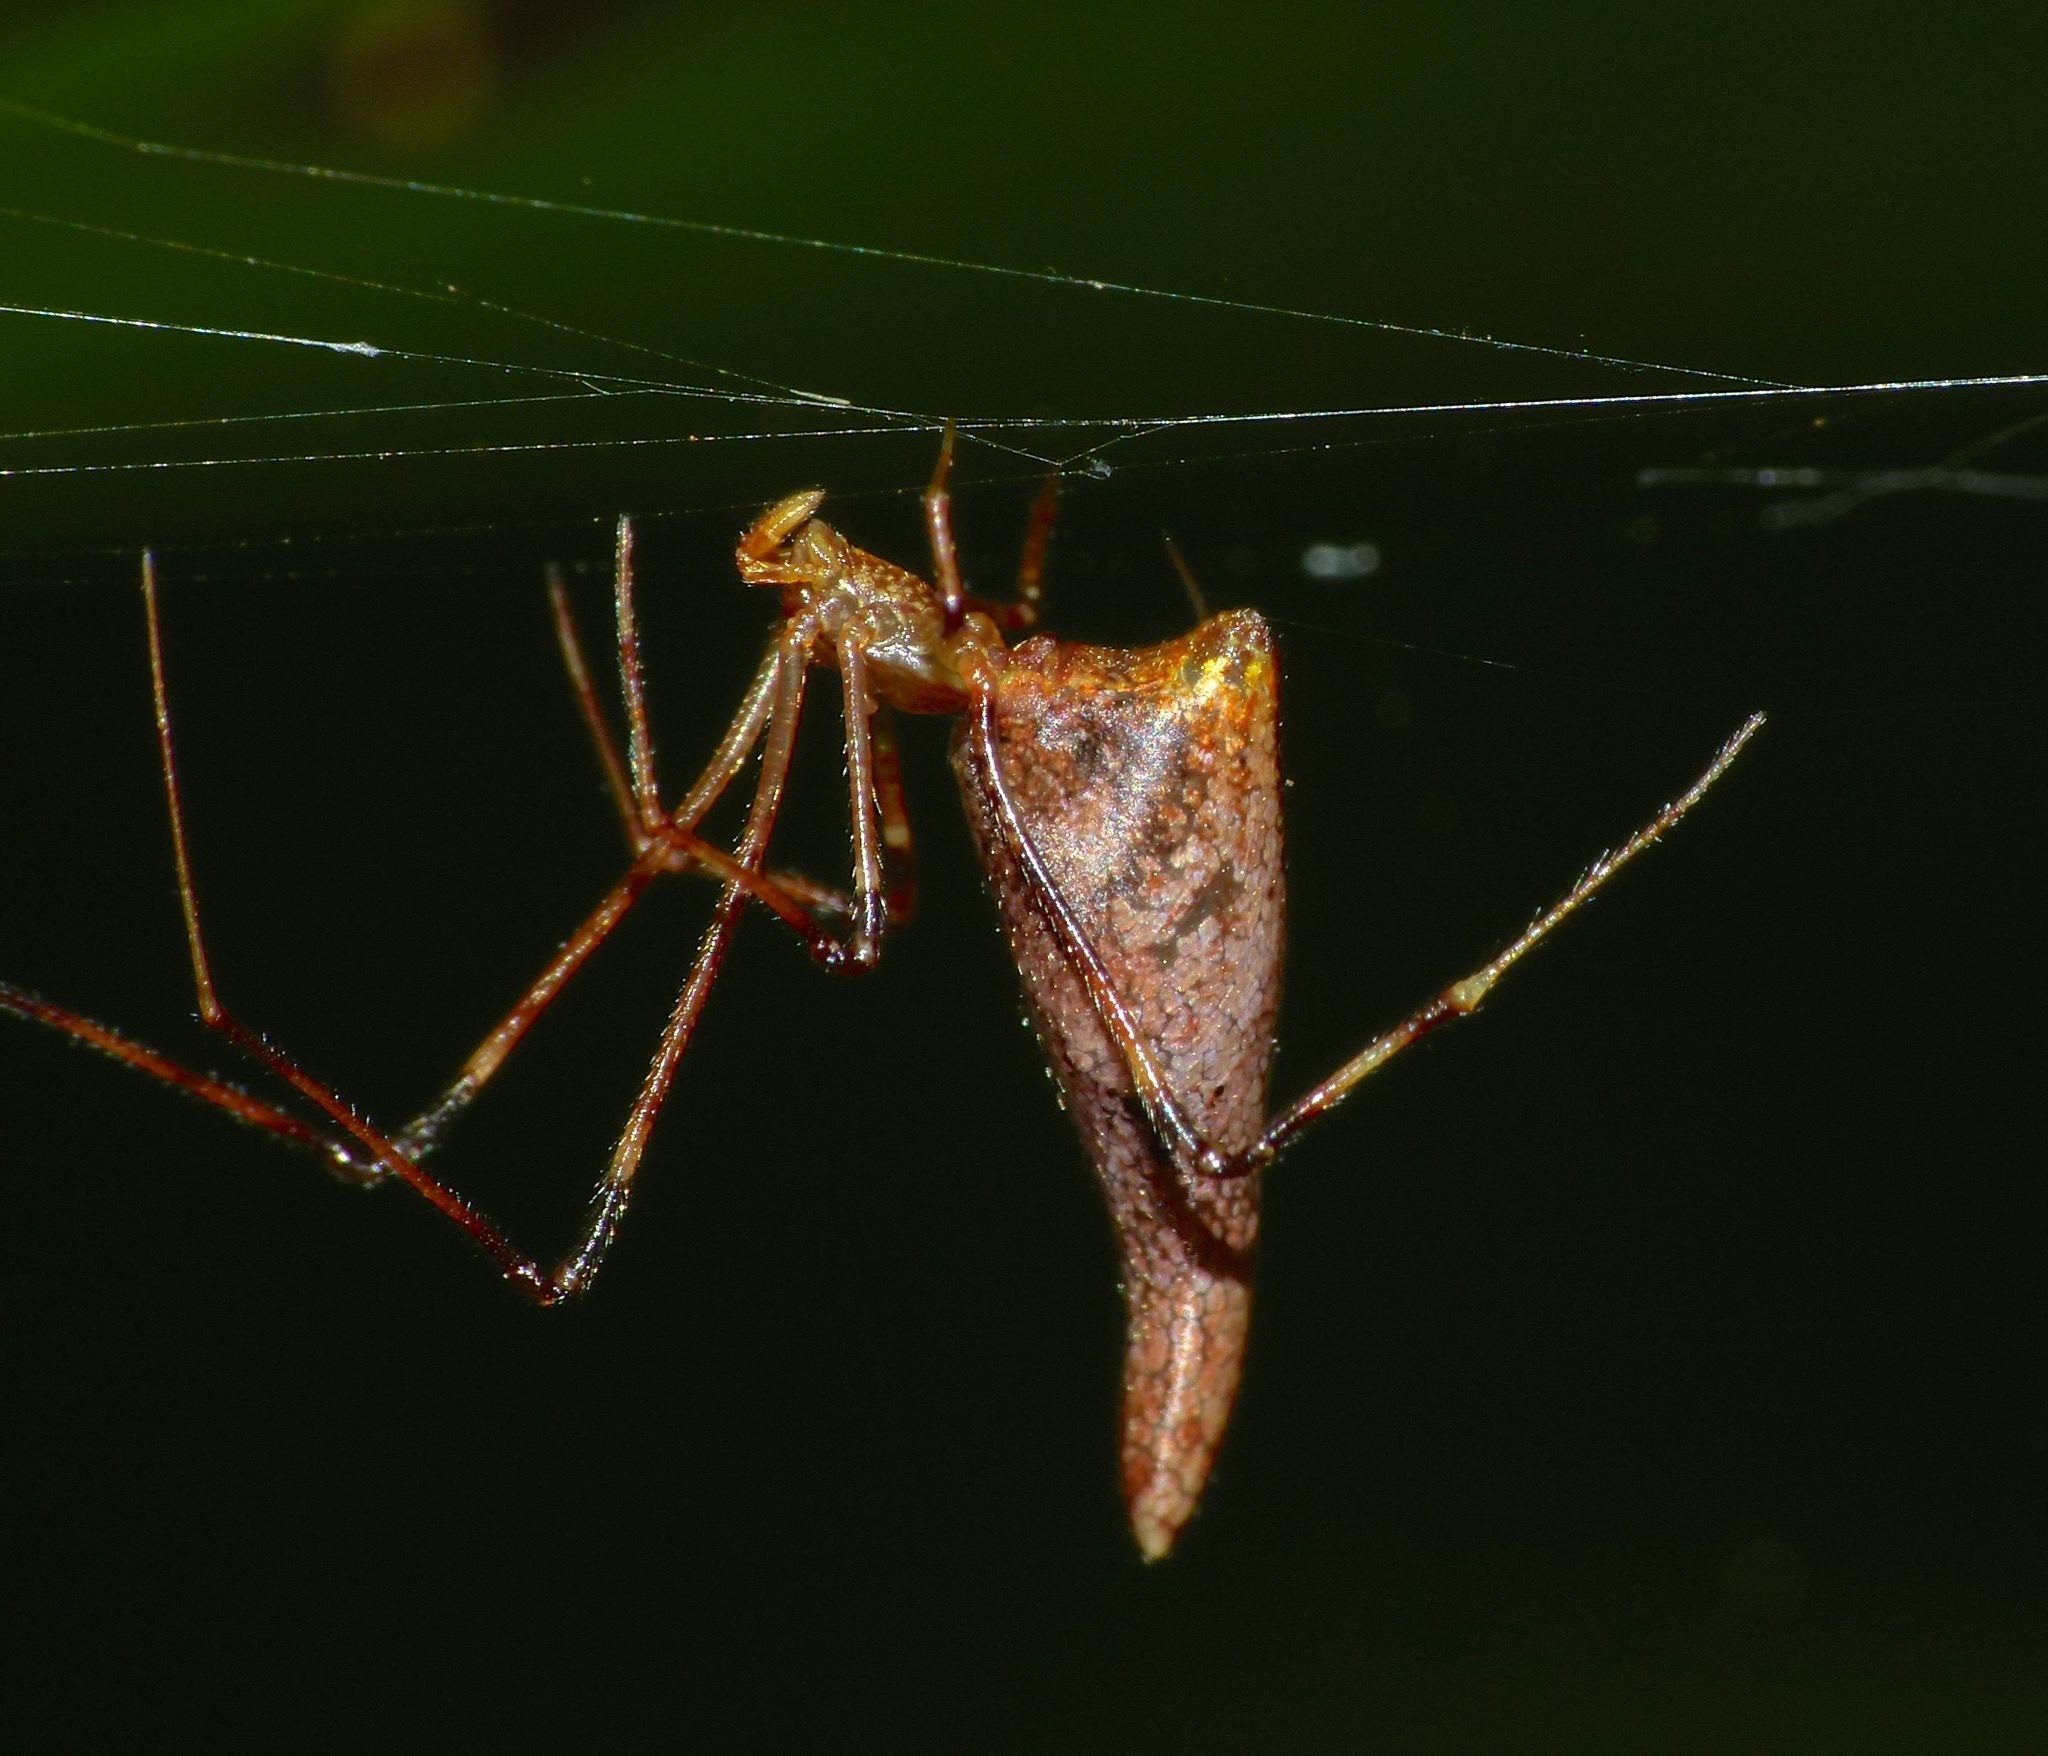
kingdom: Animalia
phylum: Arthropoda
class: Arachnida
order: Araneae
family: Theridiidae
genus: Rhomphaea
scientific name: Rhomphaea urquharti
